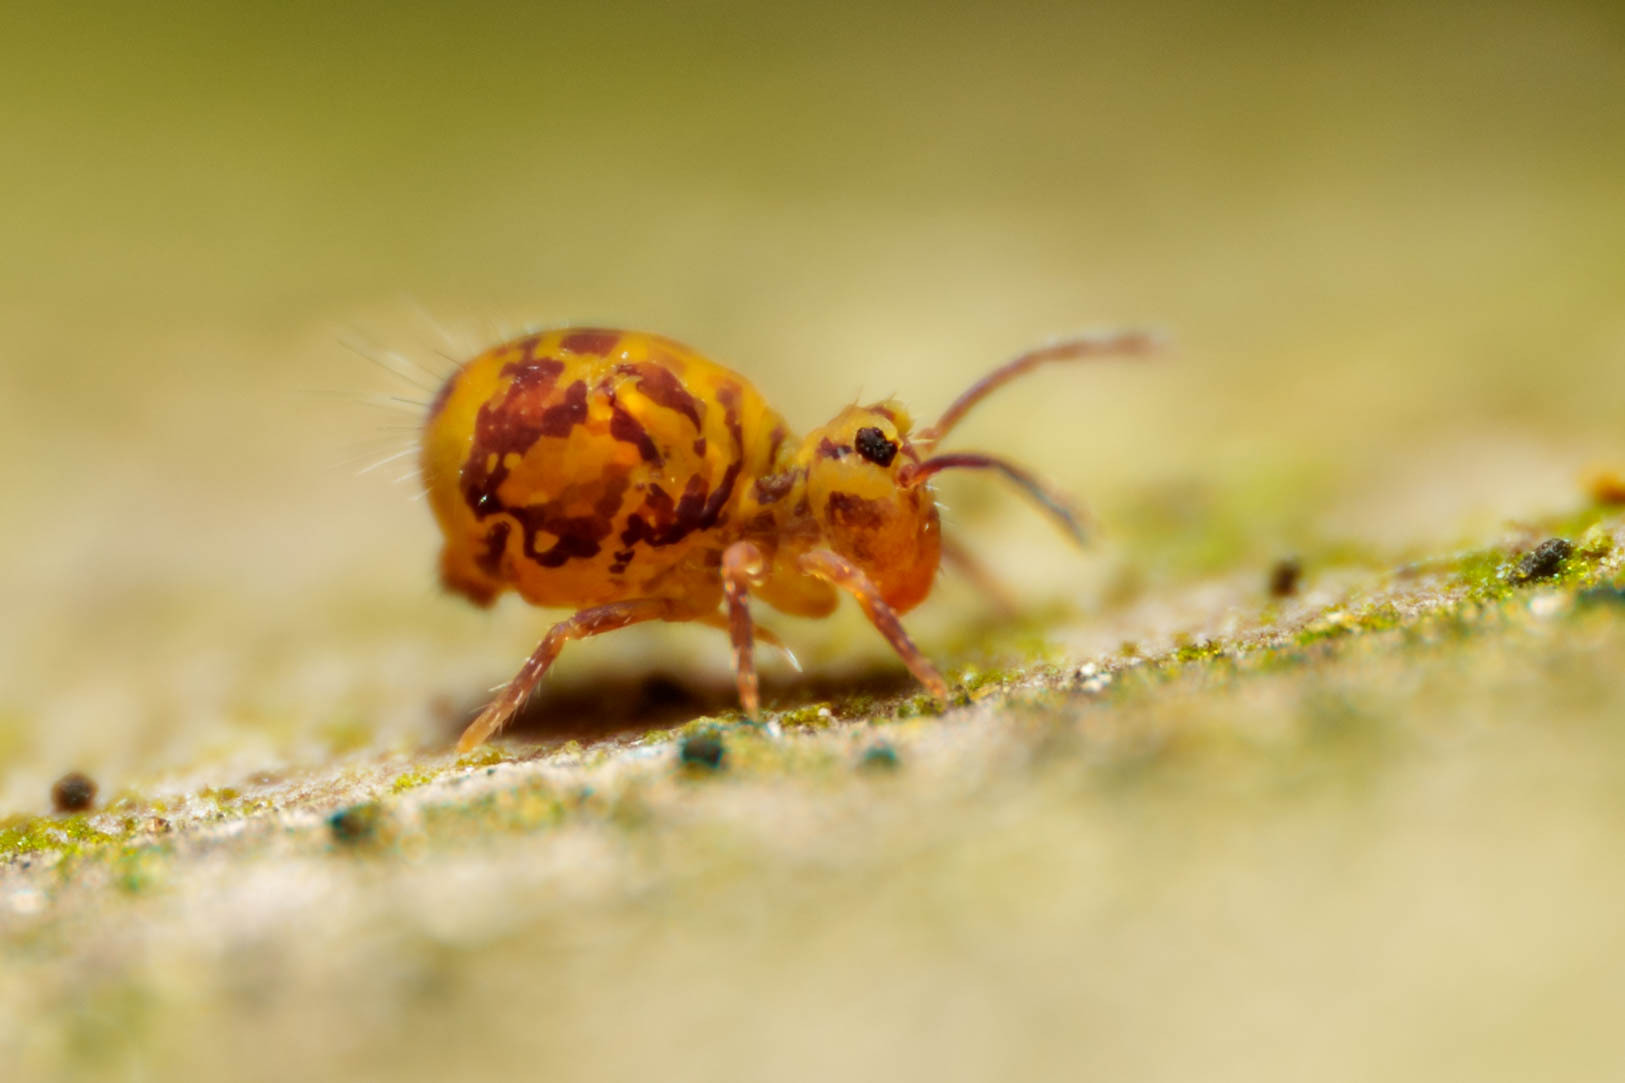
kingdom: Animalia
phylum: Arthropoda
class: Collembola
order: Symphypleona
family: Dicyrtomidae
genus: Dicyrtomina
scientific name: Dicyrtomina minuta
